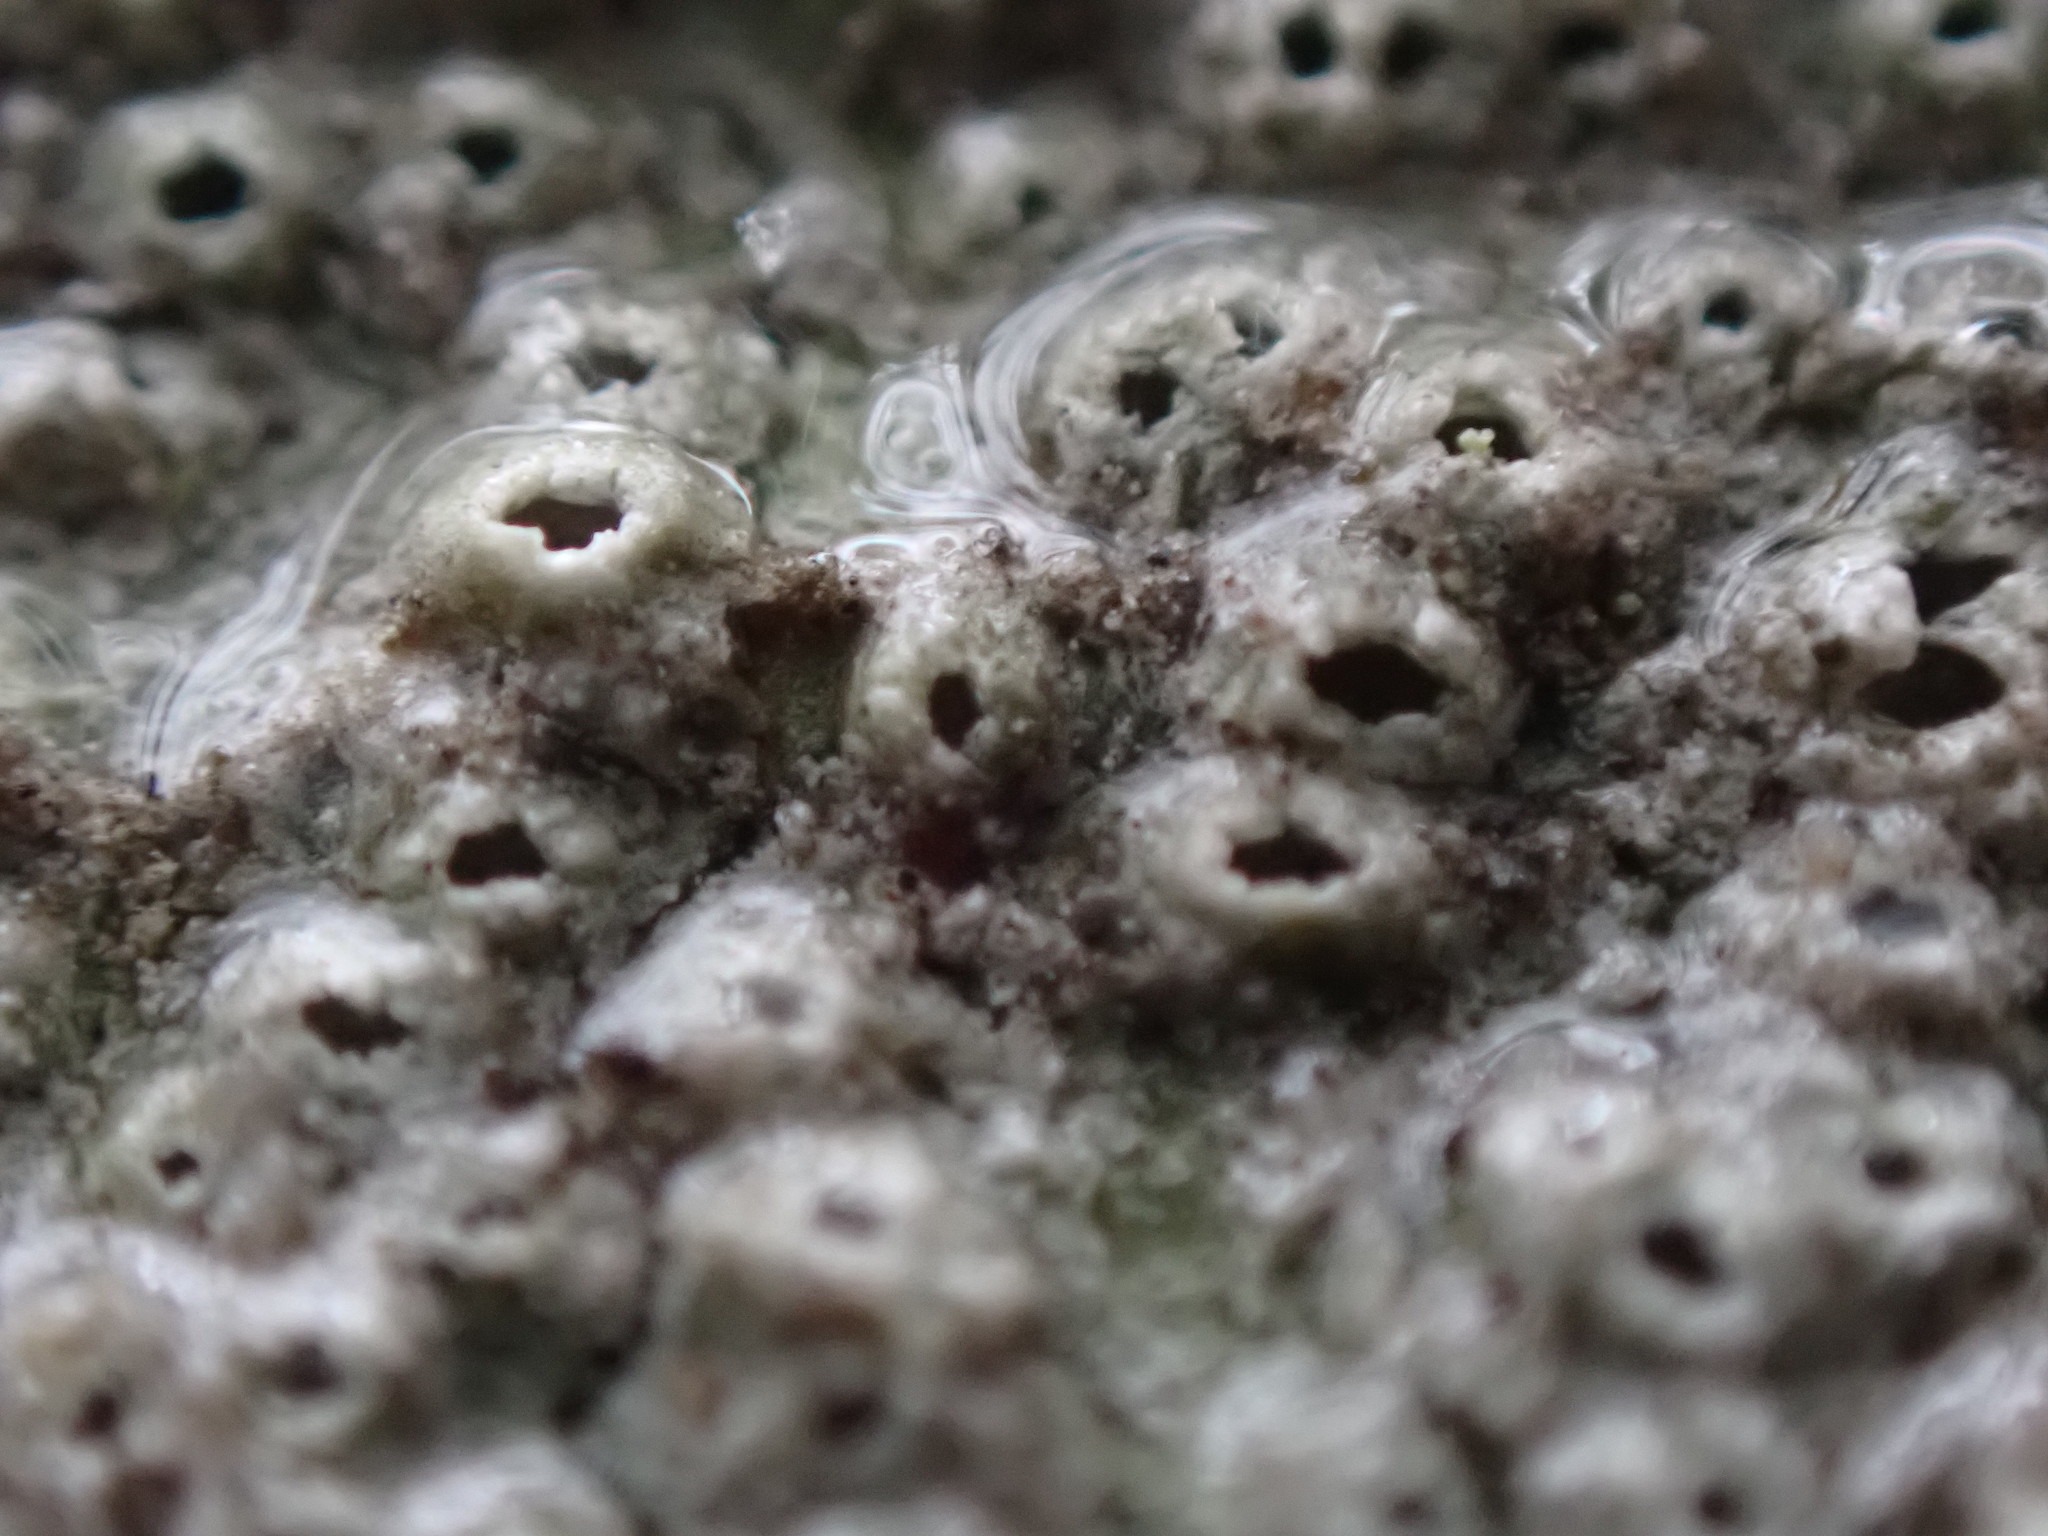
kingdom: Fungi
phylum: Ascomycota
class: Lecanoromycetes
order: Ostropales
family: Graphidaceae
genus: Thelotrema
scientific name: Thelotrema lepadinum
